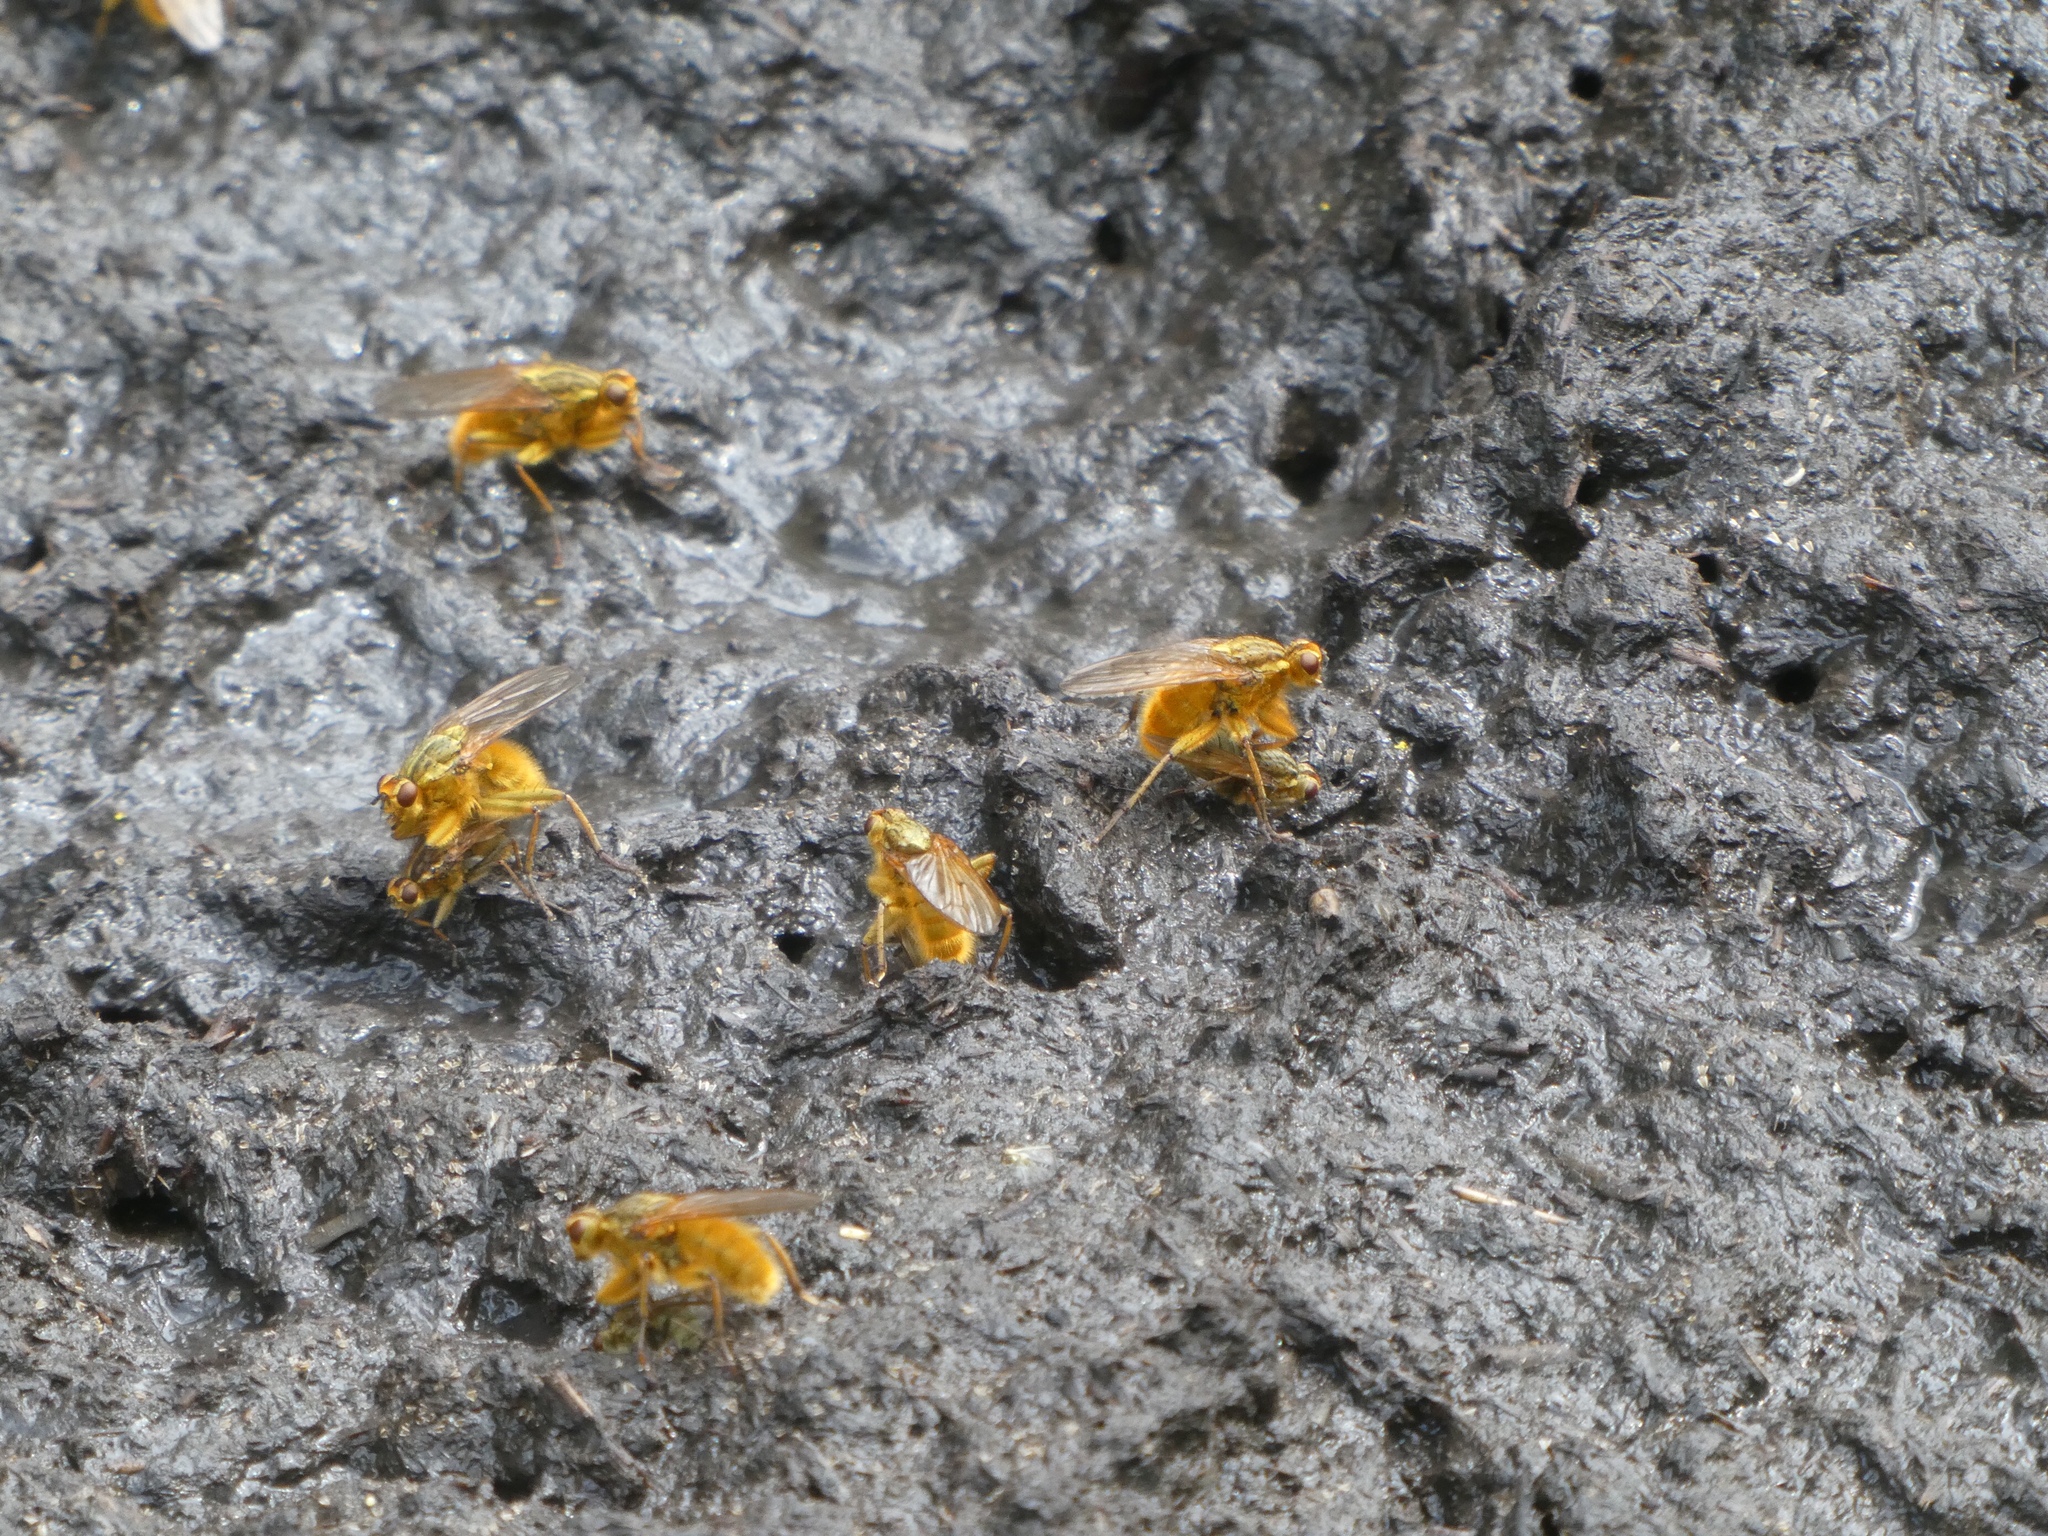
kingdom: Animalia
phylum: Arthropoda
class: Insecta
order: Diptera
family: Scathophagidae
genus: Scathophaga
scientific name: Scathophaga stercoraria
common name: Yellow dung fly
